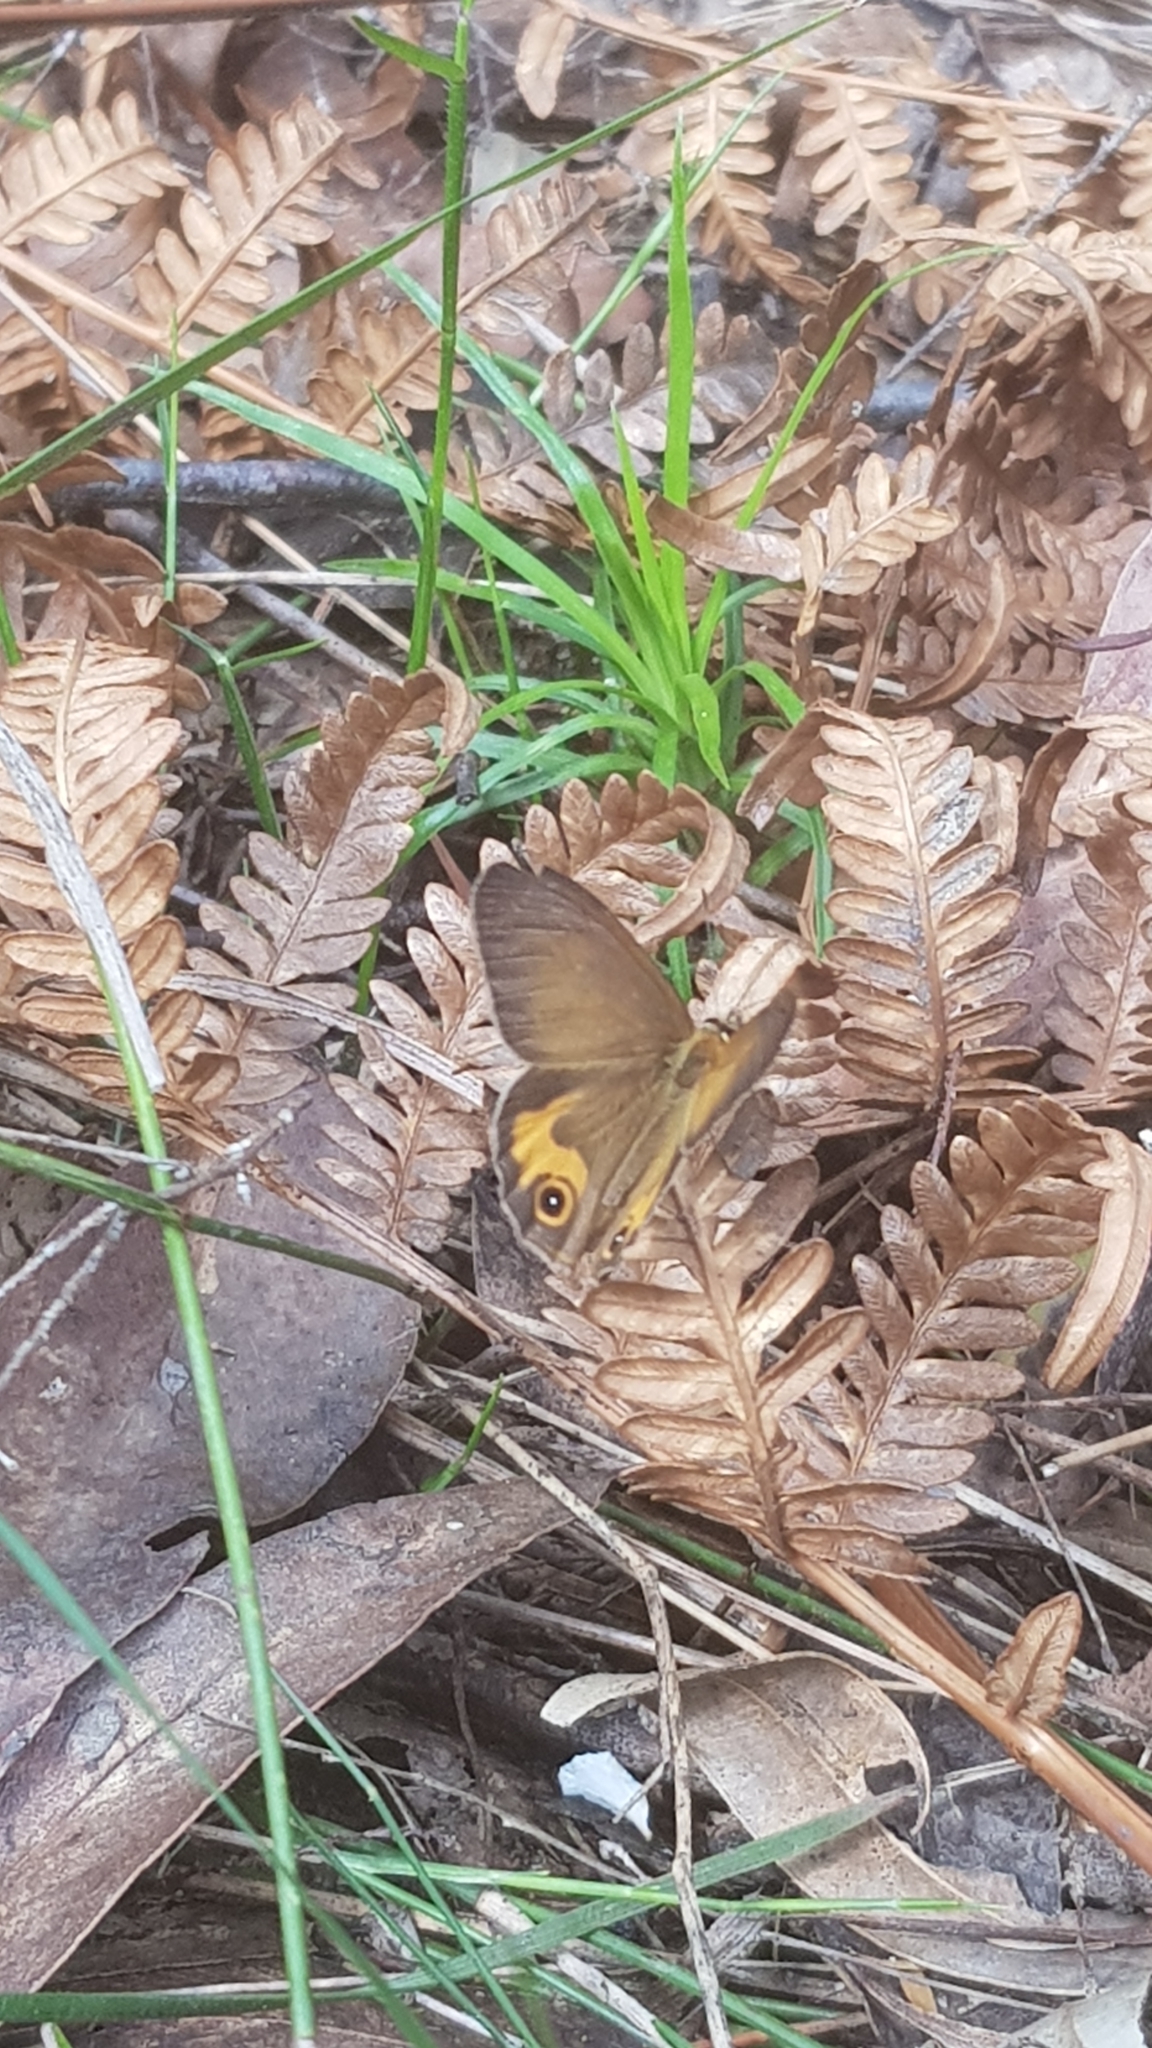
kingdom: Animalia
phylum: Arthropoda
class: Insecta
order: Lepidoptera
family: Nymphalidae
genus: Hypocysta
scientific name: Hypocysta metirius
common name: Brown ringlet
